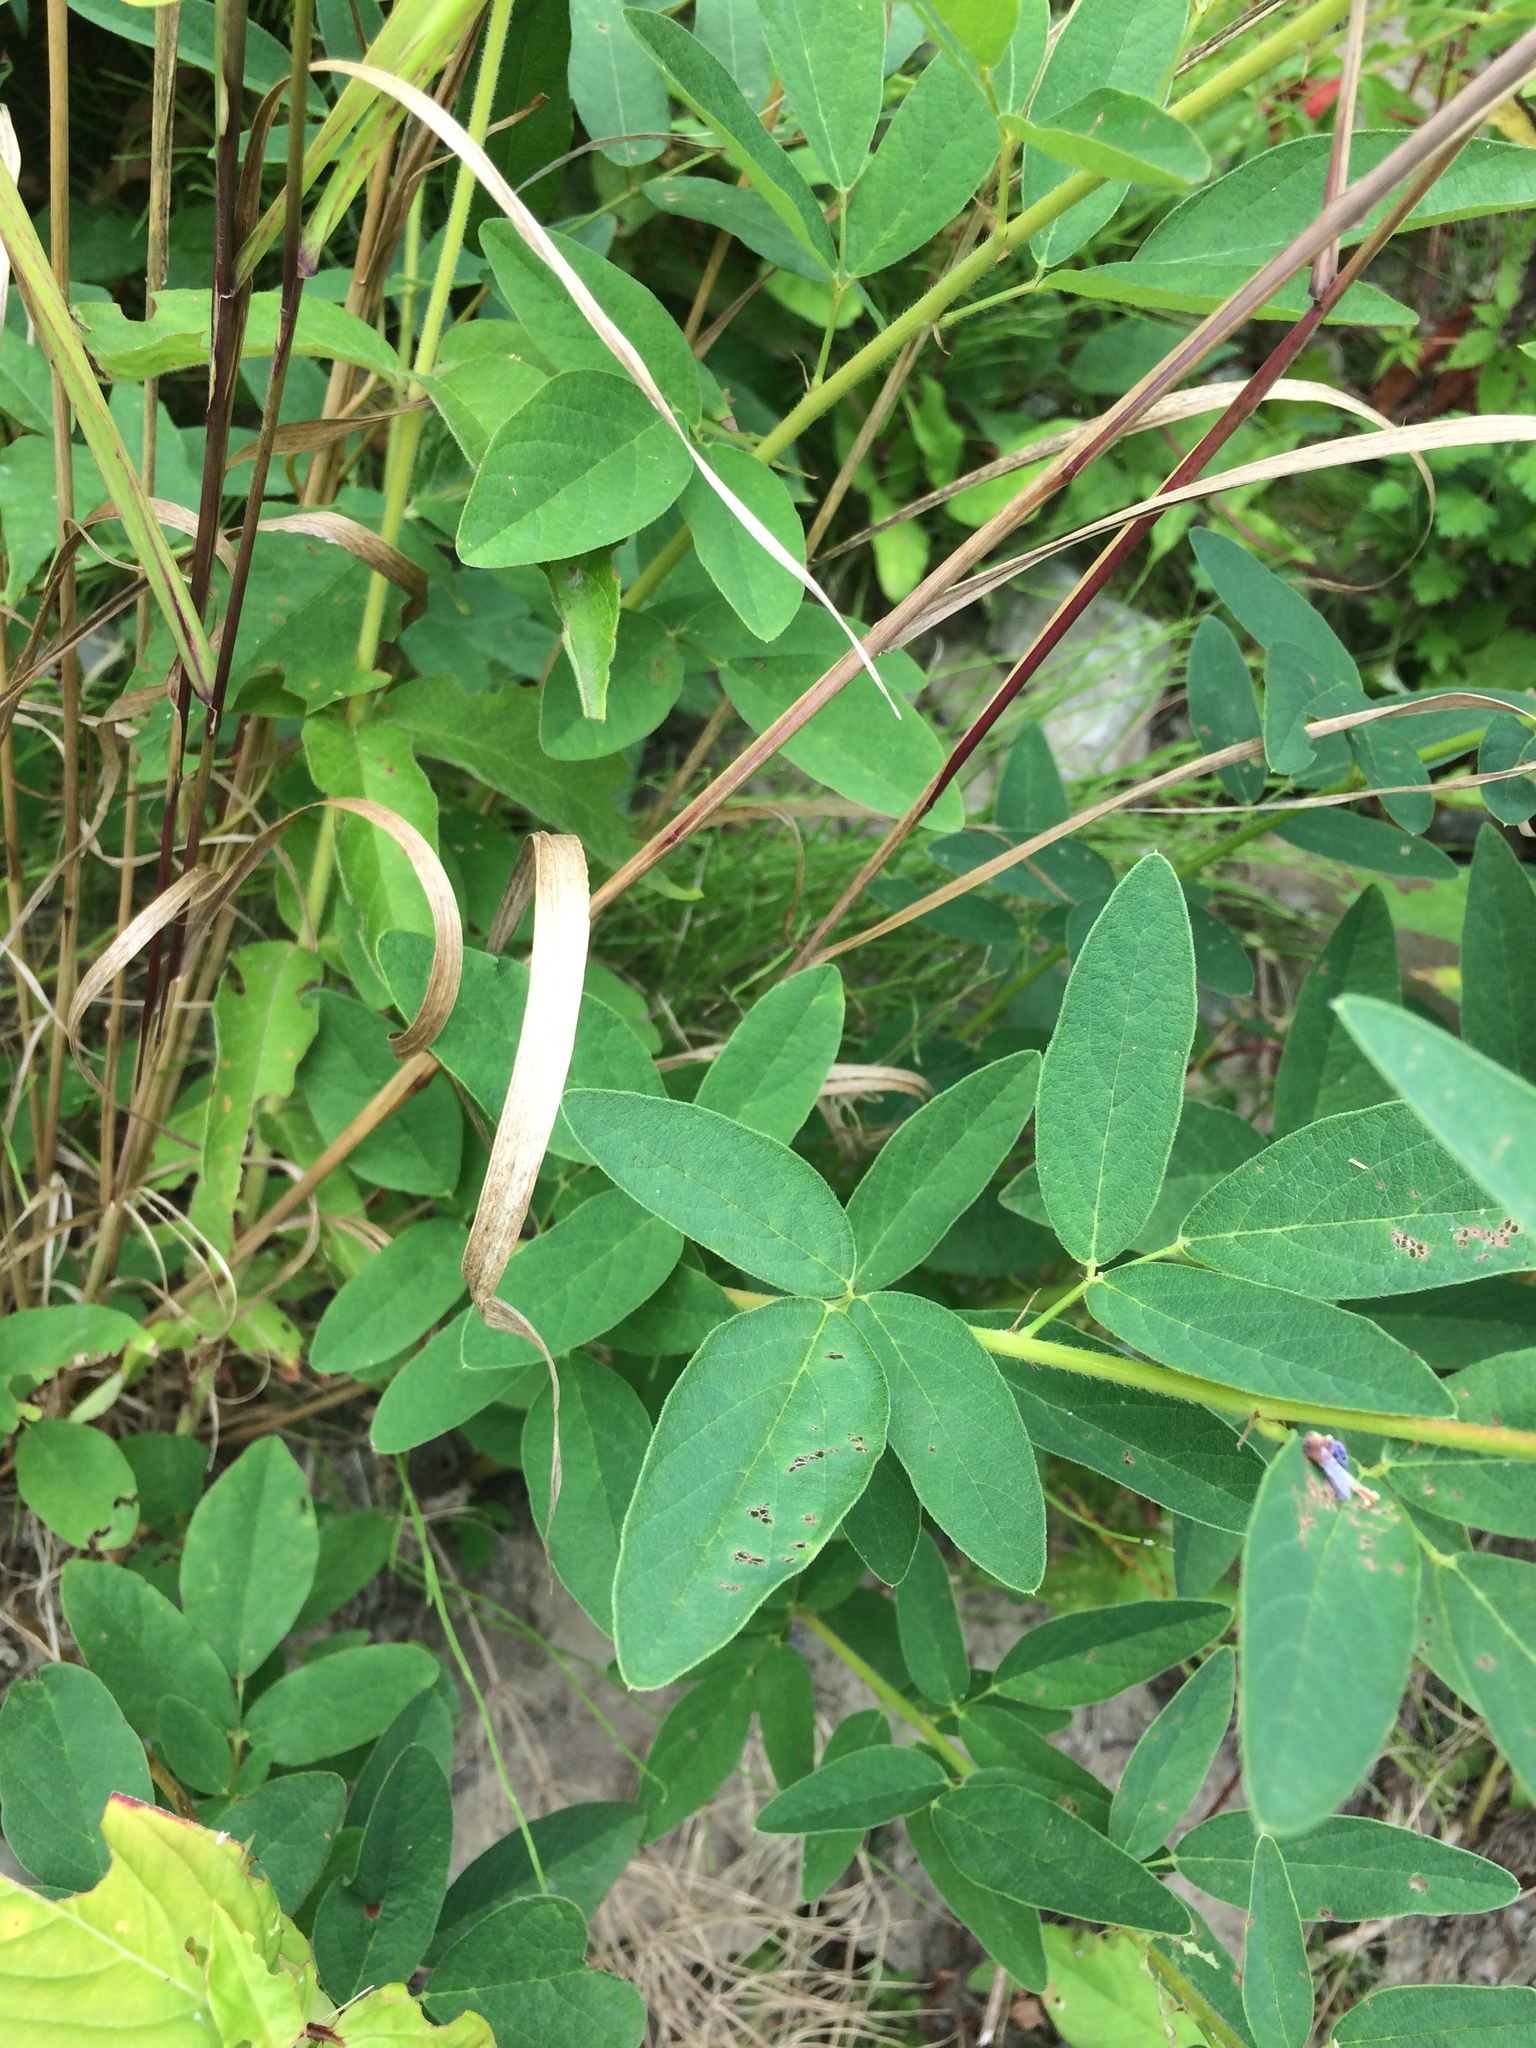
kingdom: Plantae
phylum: Tracheophyta
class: Magnoliopsida
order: Fabales
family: Fabaceae
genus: Desmodium
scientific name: Desmodium canadense
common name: Canada tick-trefoil
